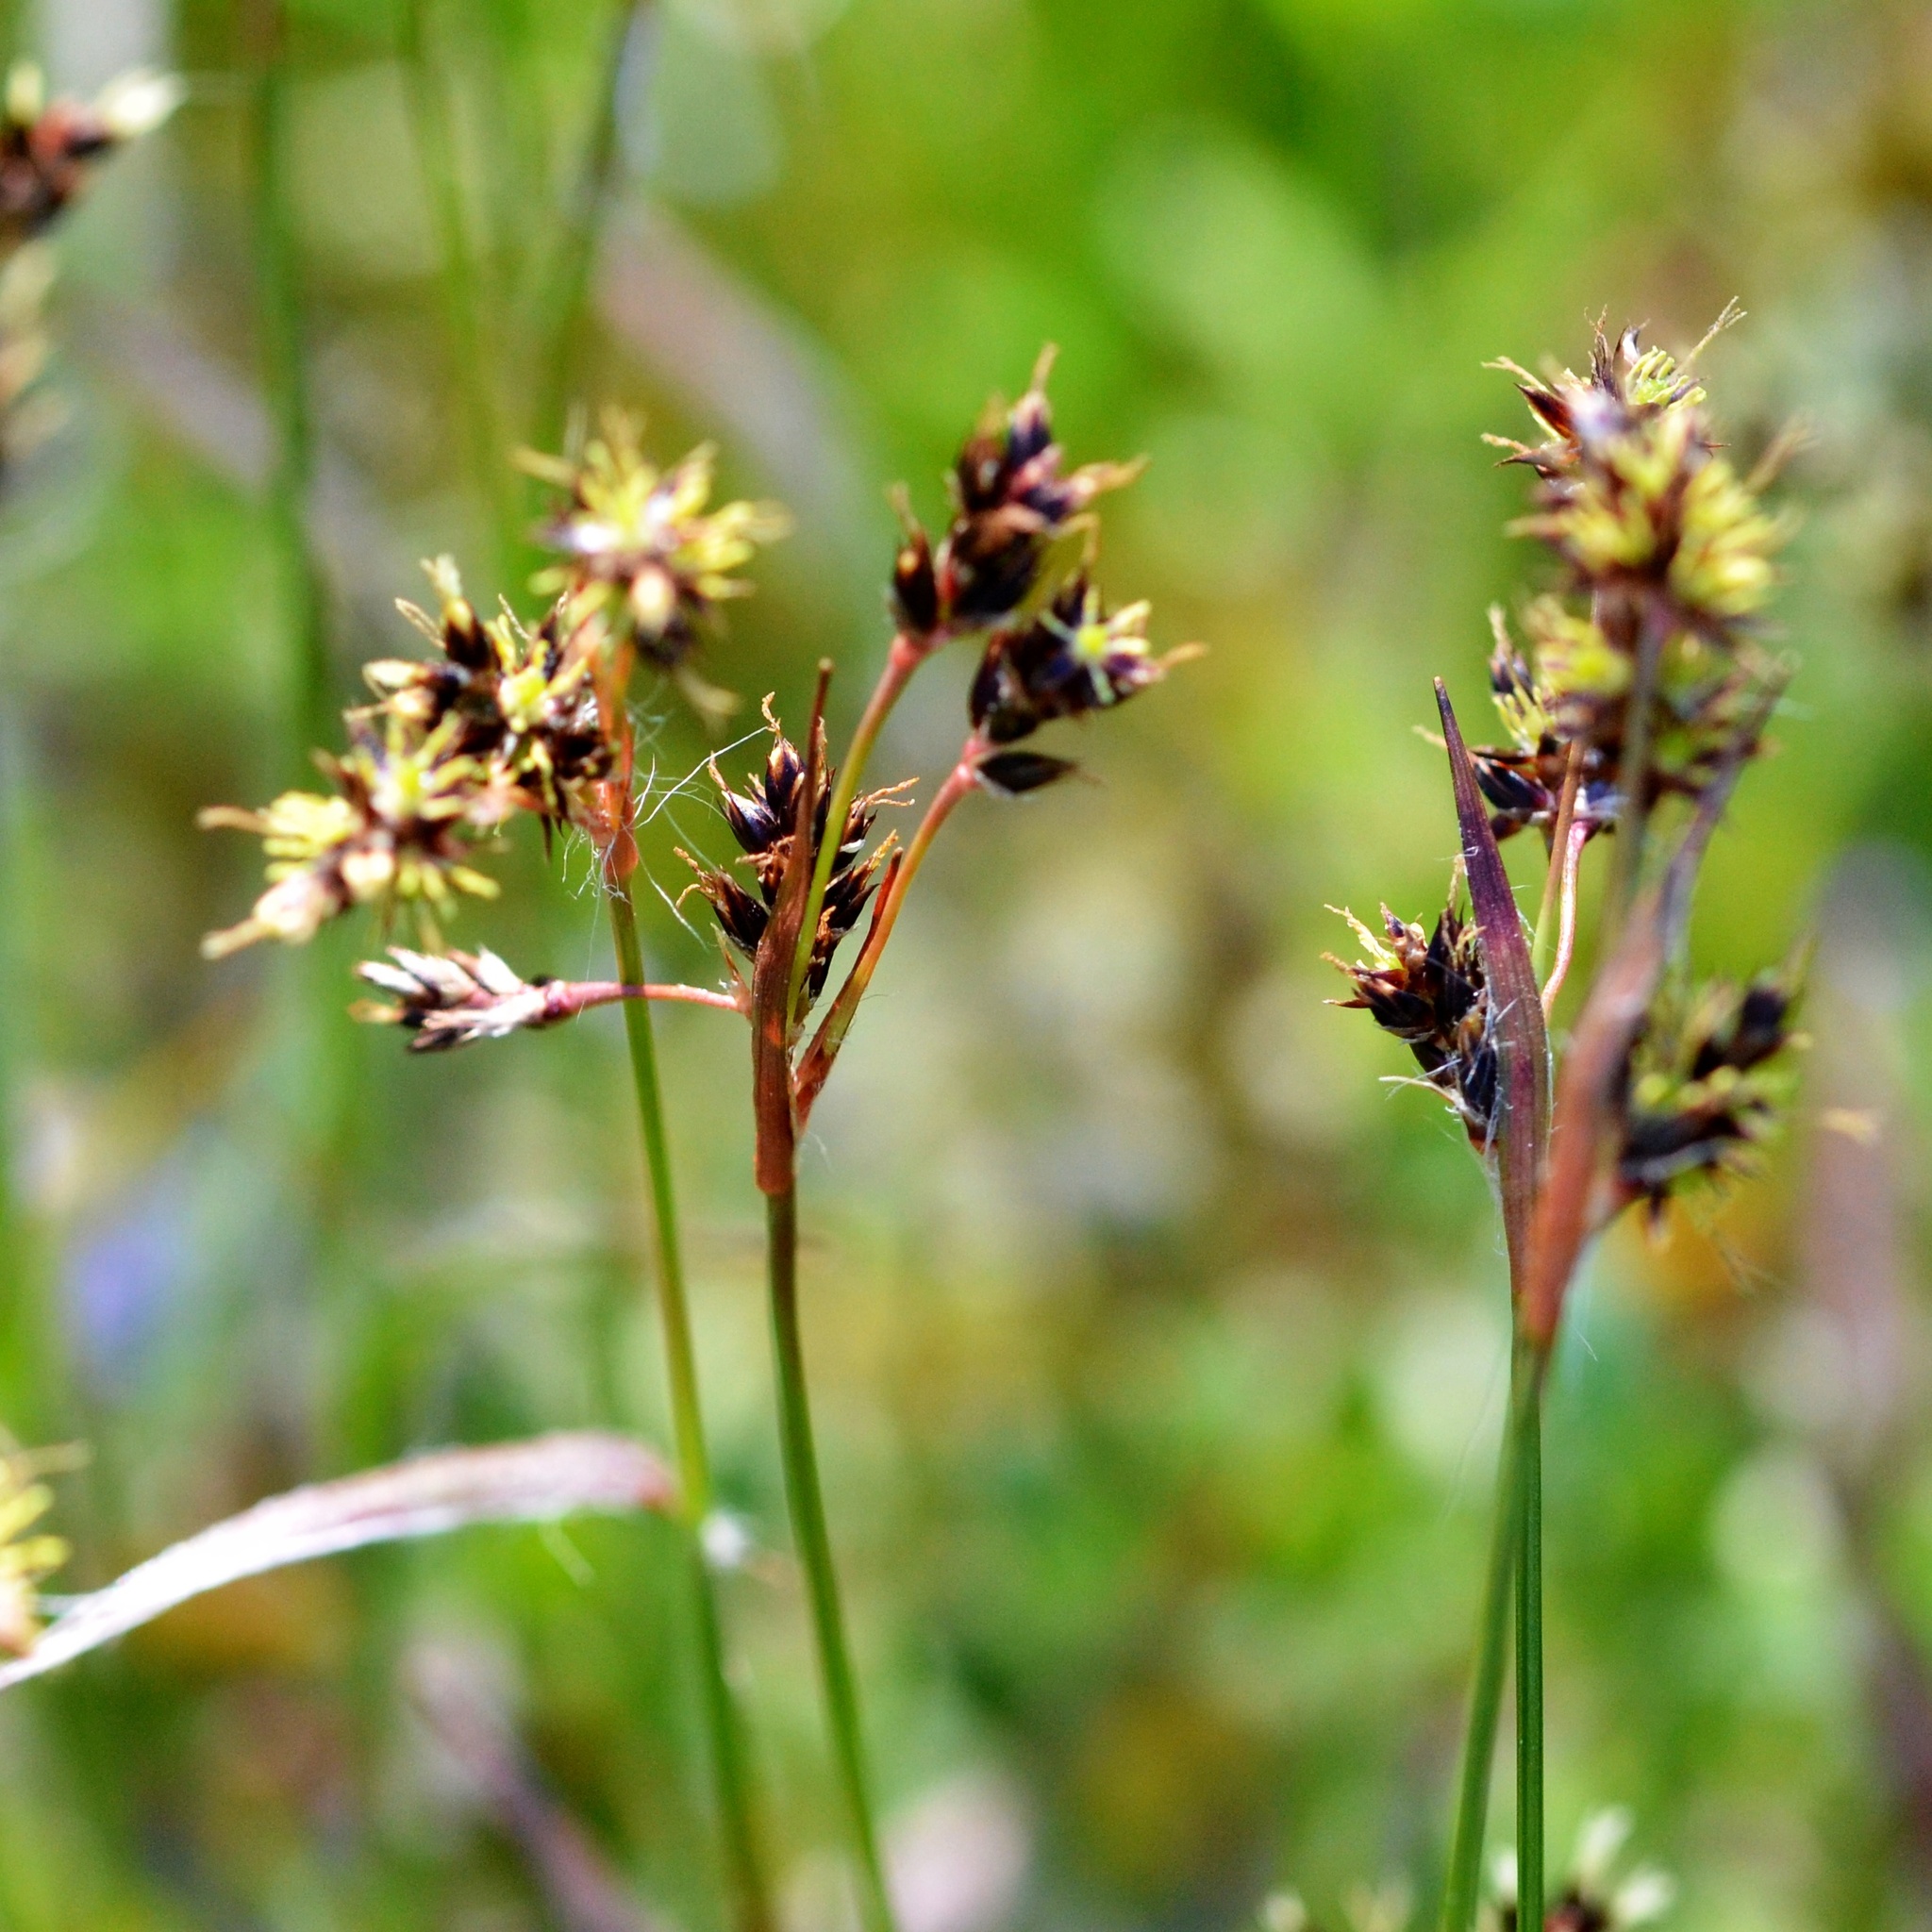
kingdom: Plantae
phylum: Tracheophyta
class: Liliopsida
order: Poales
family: Juncaceae
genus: Luzula
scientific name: Luzula campestris
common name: Field wood-rush
